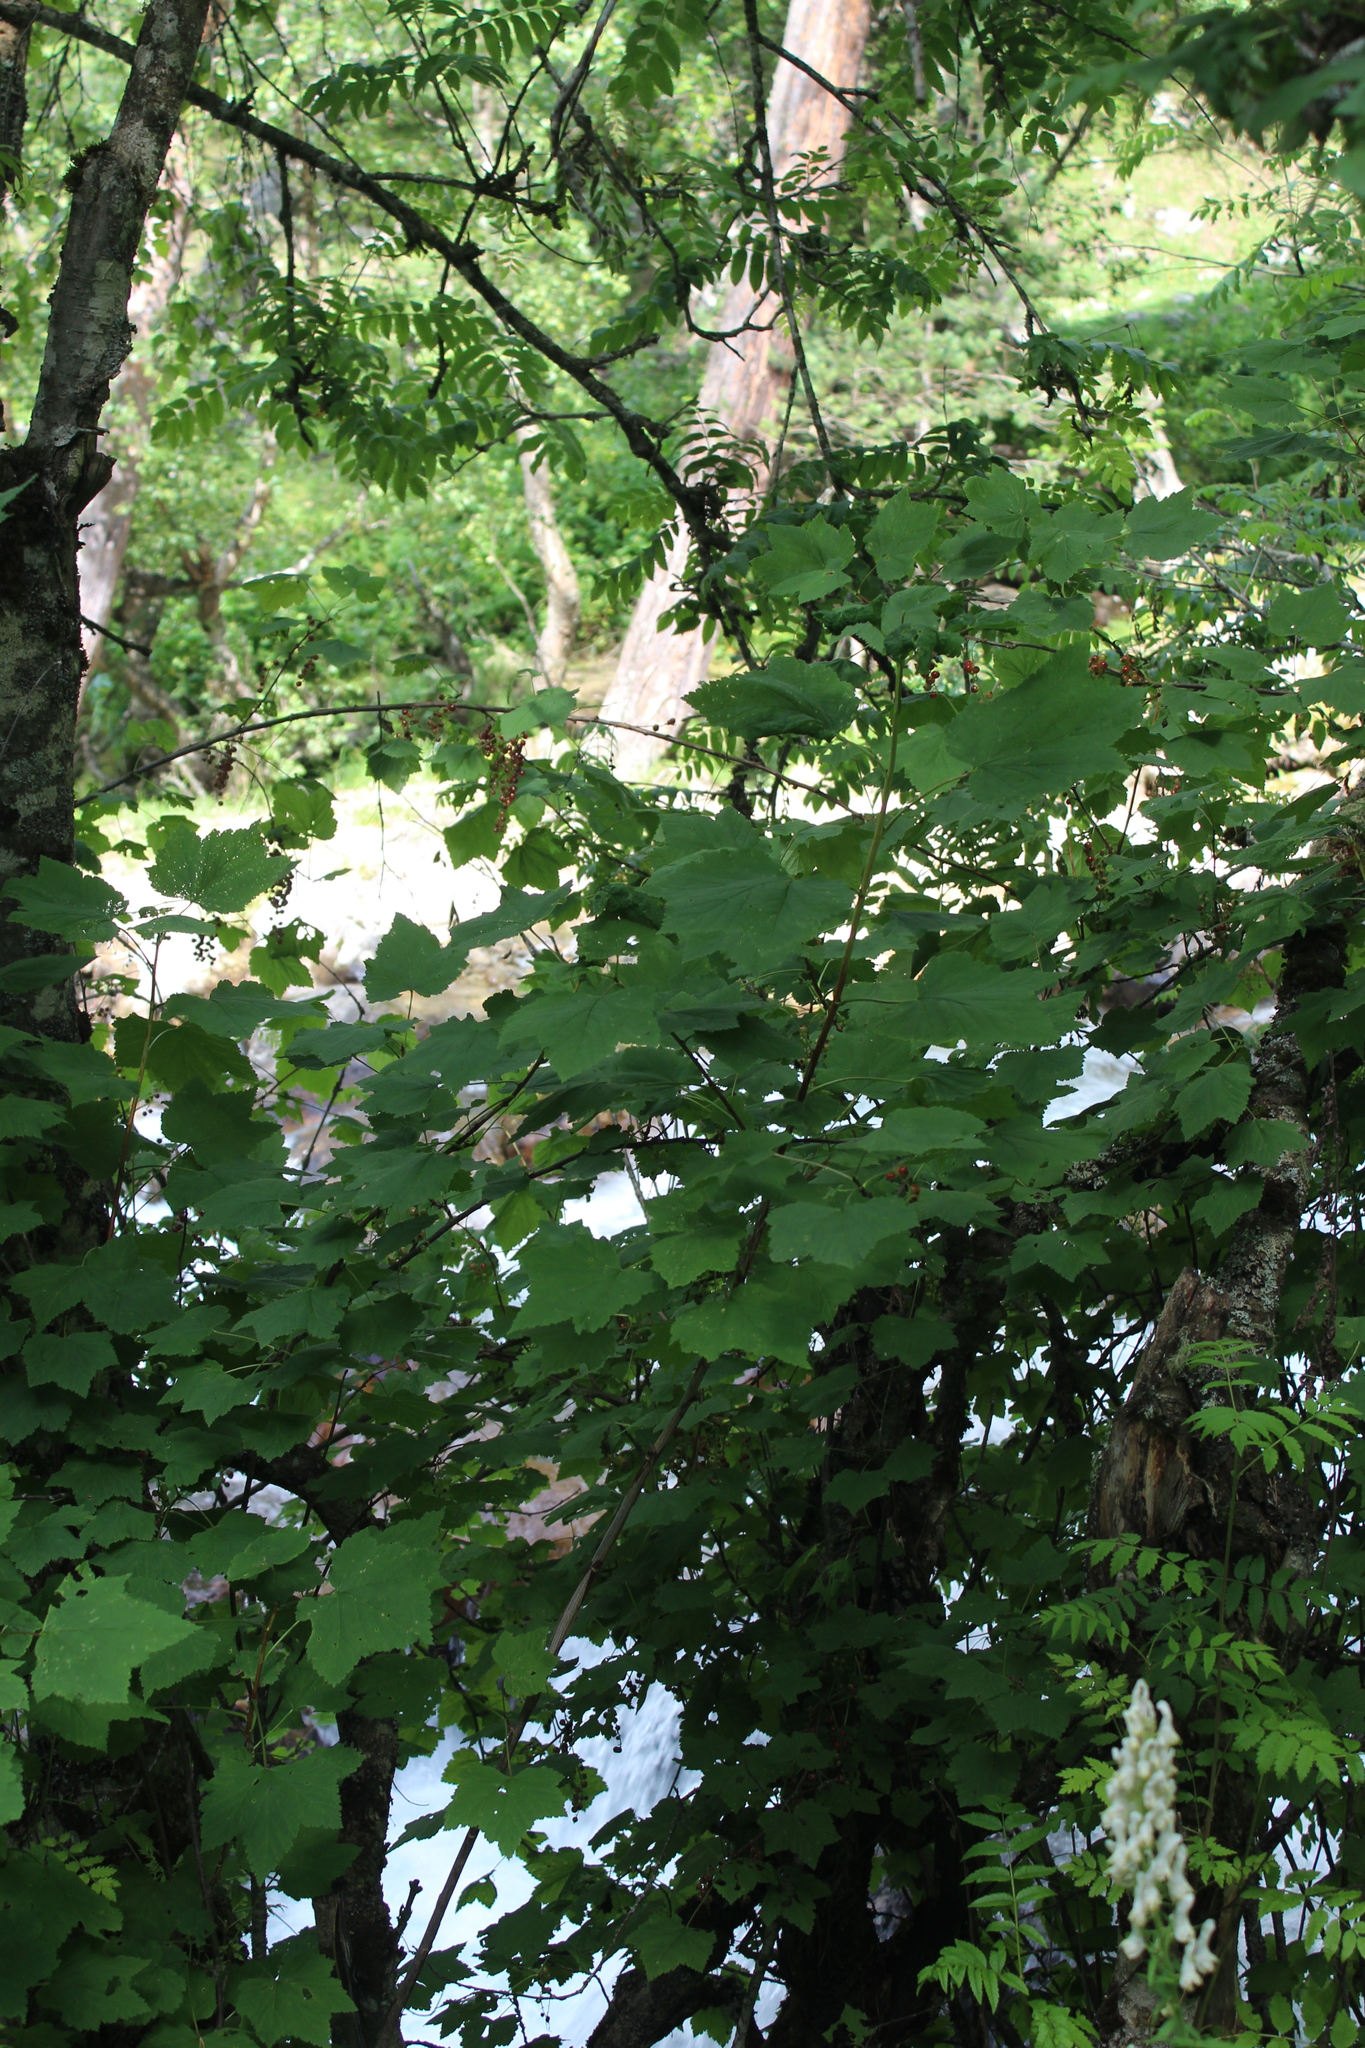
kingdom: Plantae
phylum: Tracheophyta
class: Magnoliopsida
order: Saxifragales
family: Grossulariaceae
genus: Ribes
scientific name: Ribes biebersteinii
